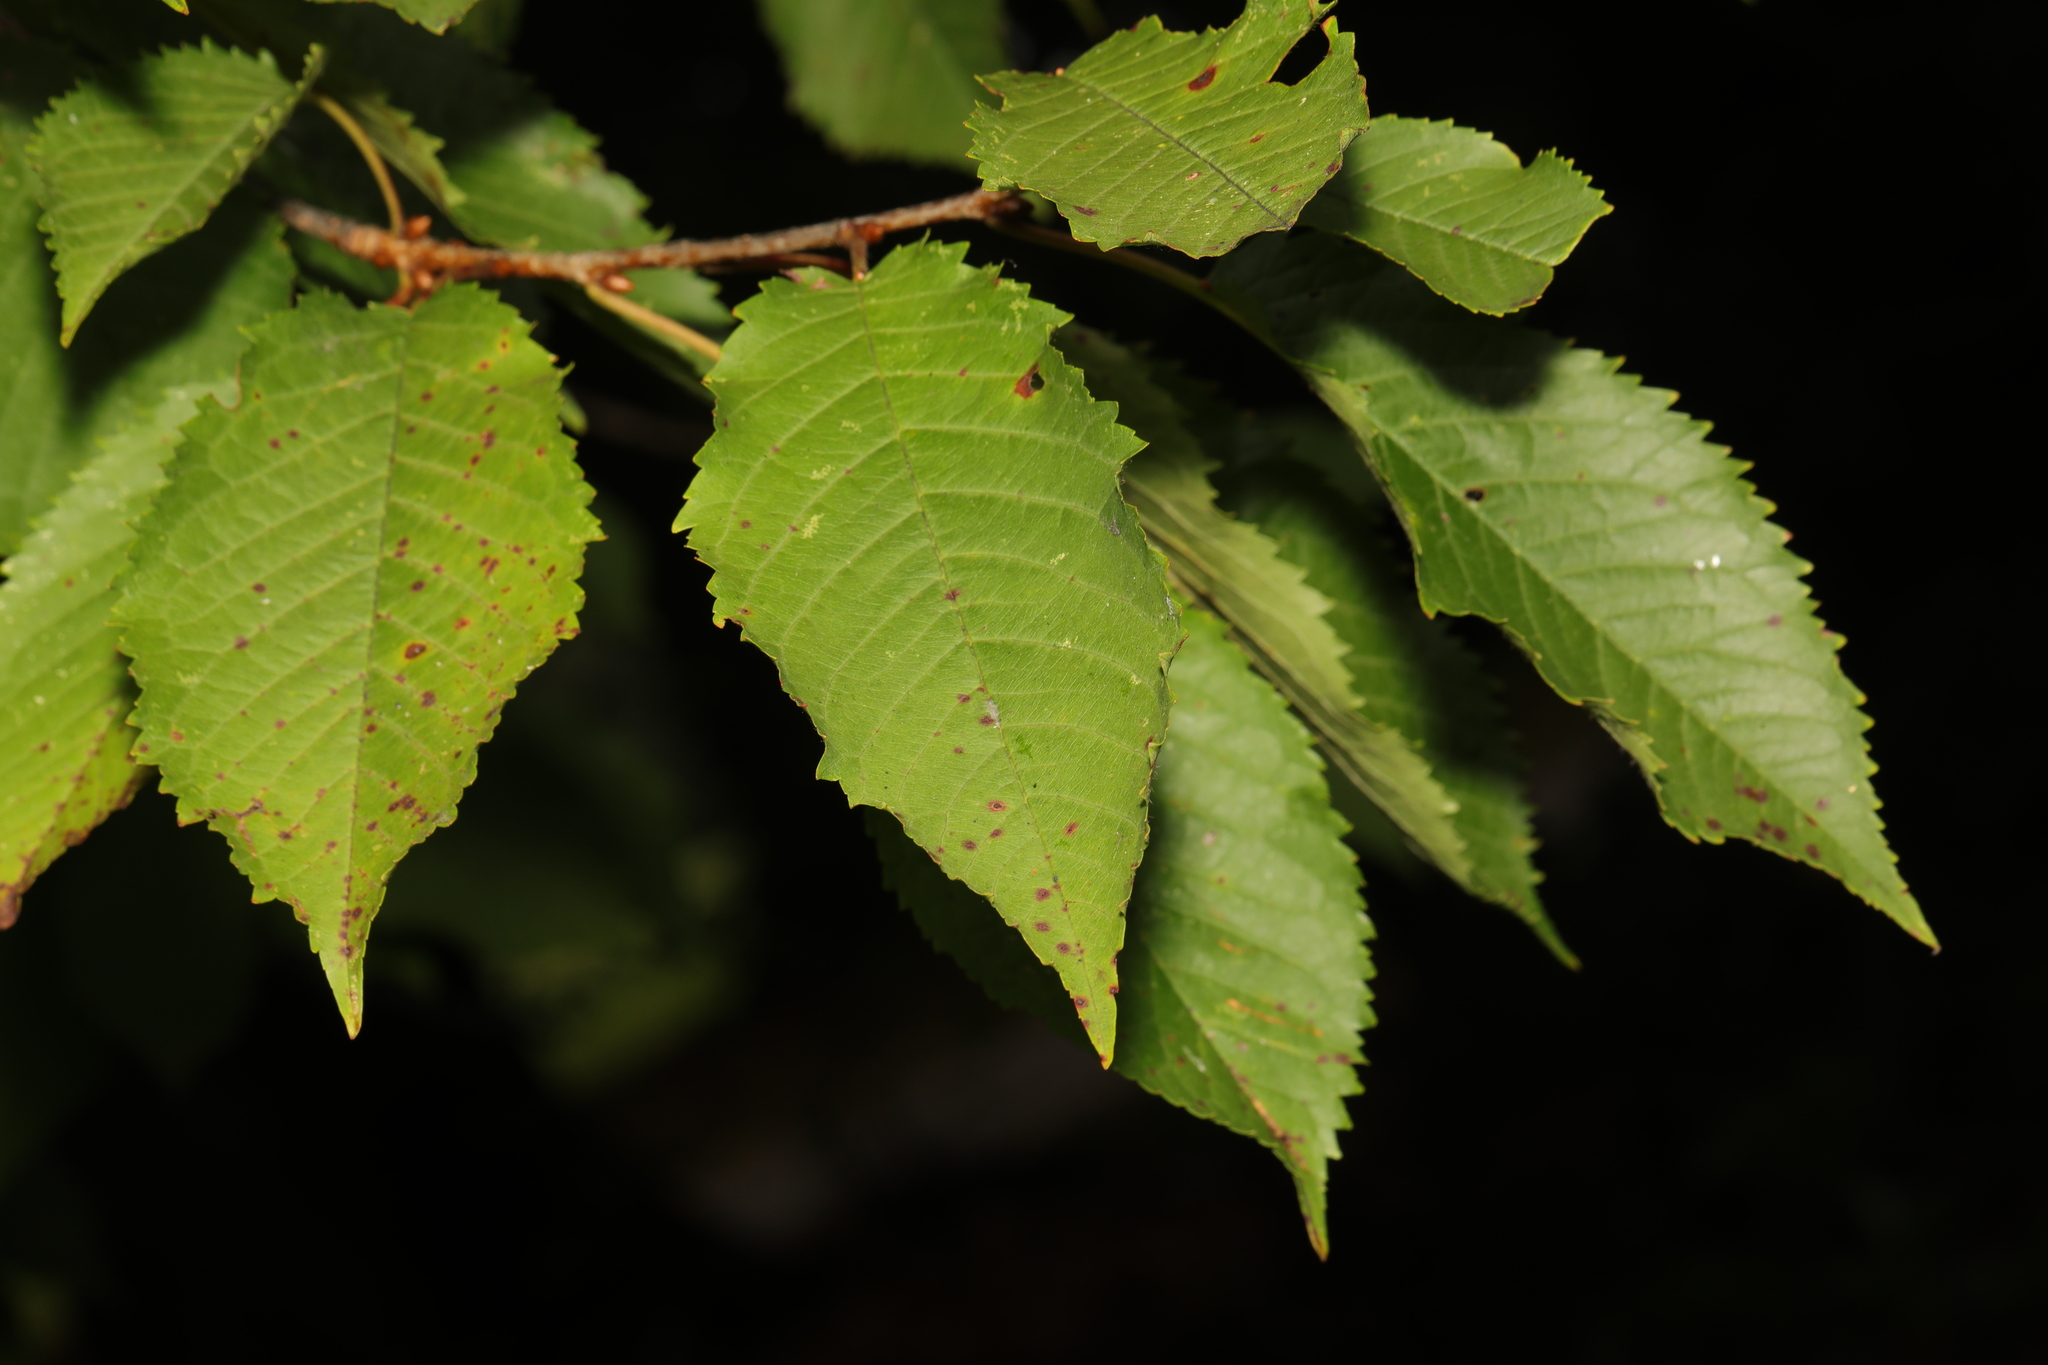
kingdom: Plantae
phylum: Tracheophyta
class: Magnoliopsida
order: Rosales
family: Rosaceae
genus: Prunus
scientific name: Prunus avium
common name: Sweet cherry
